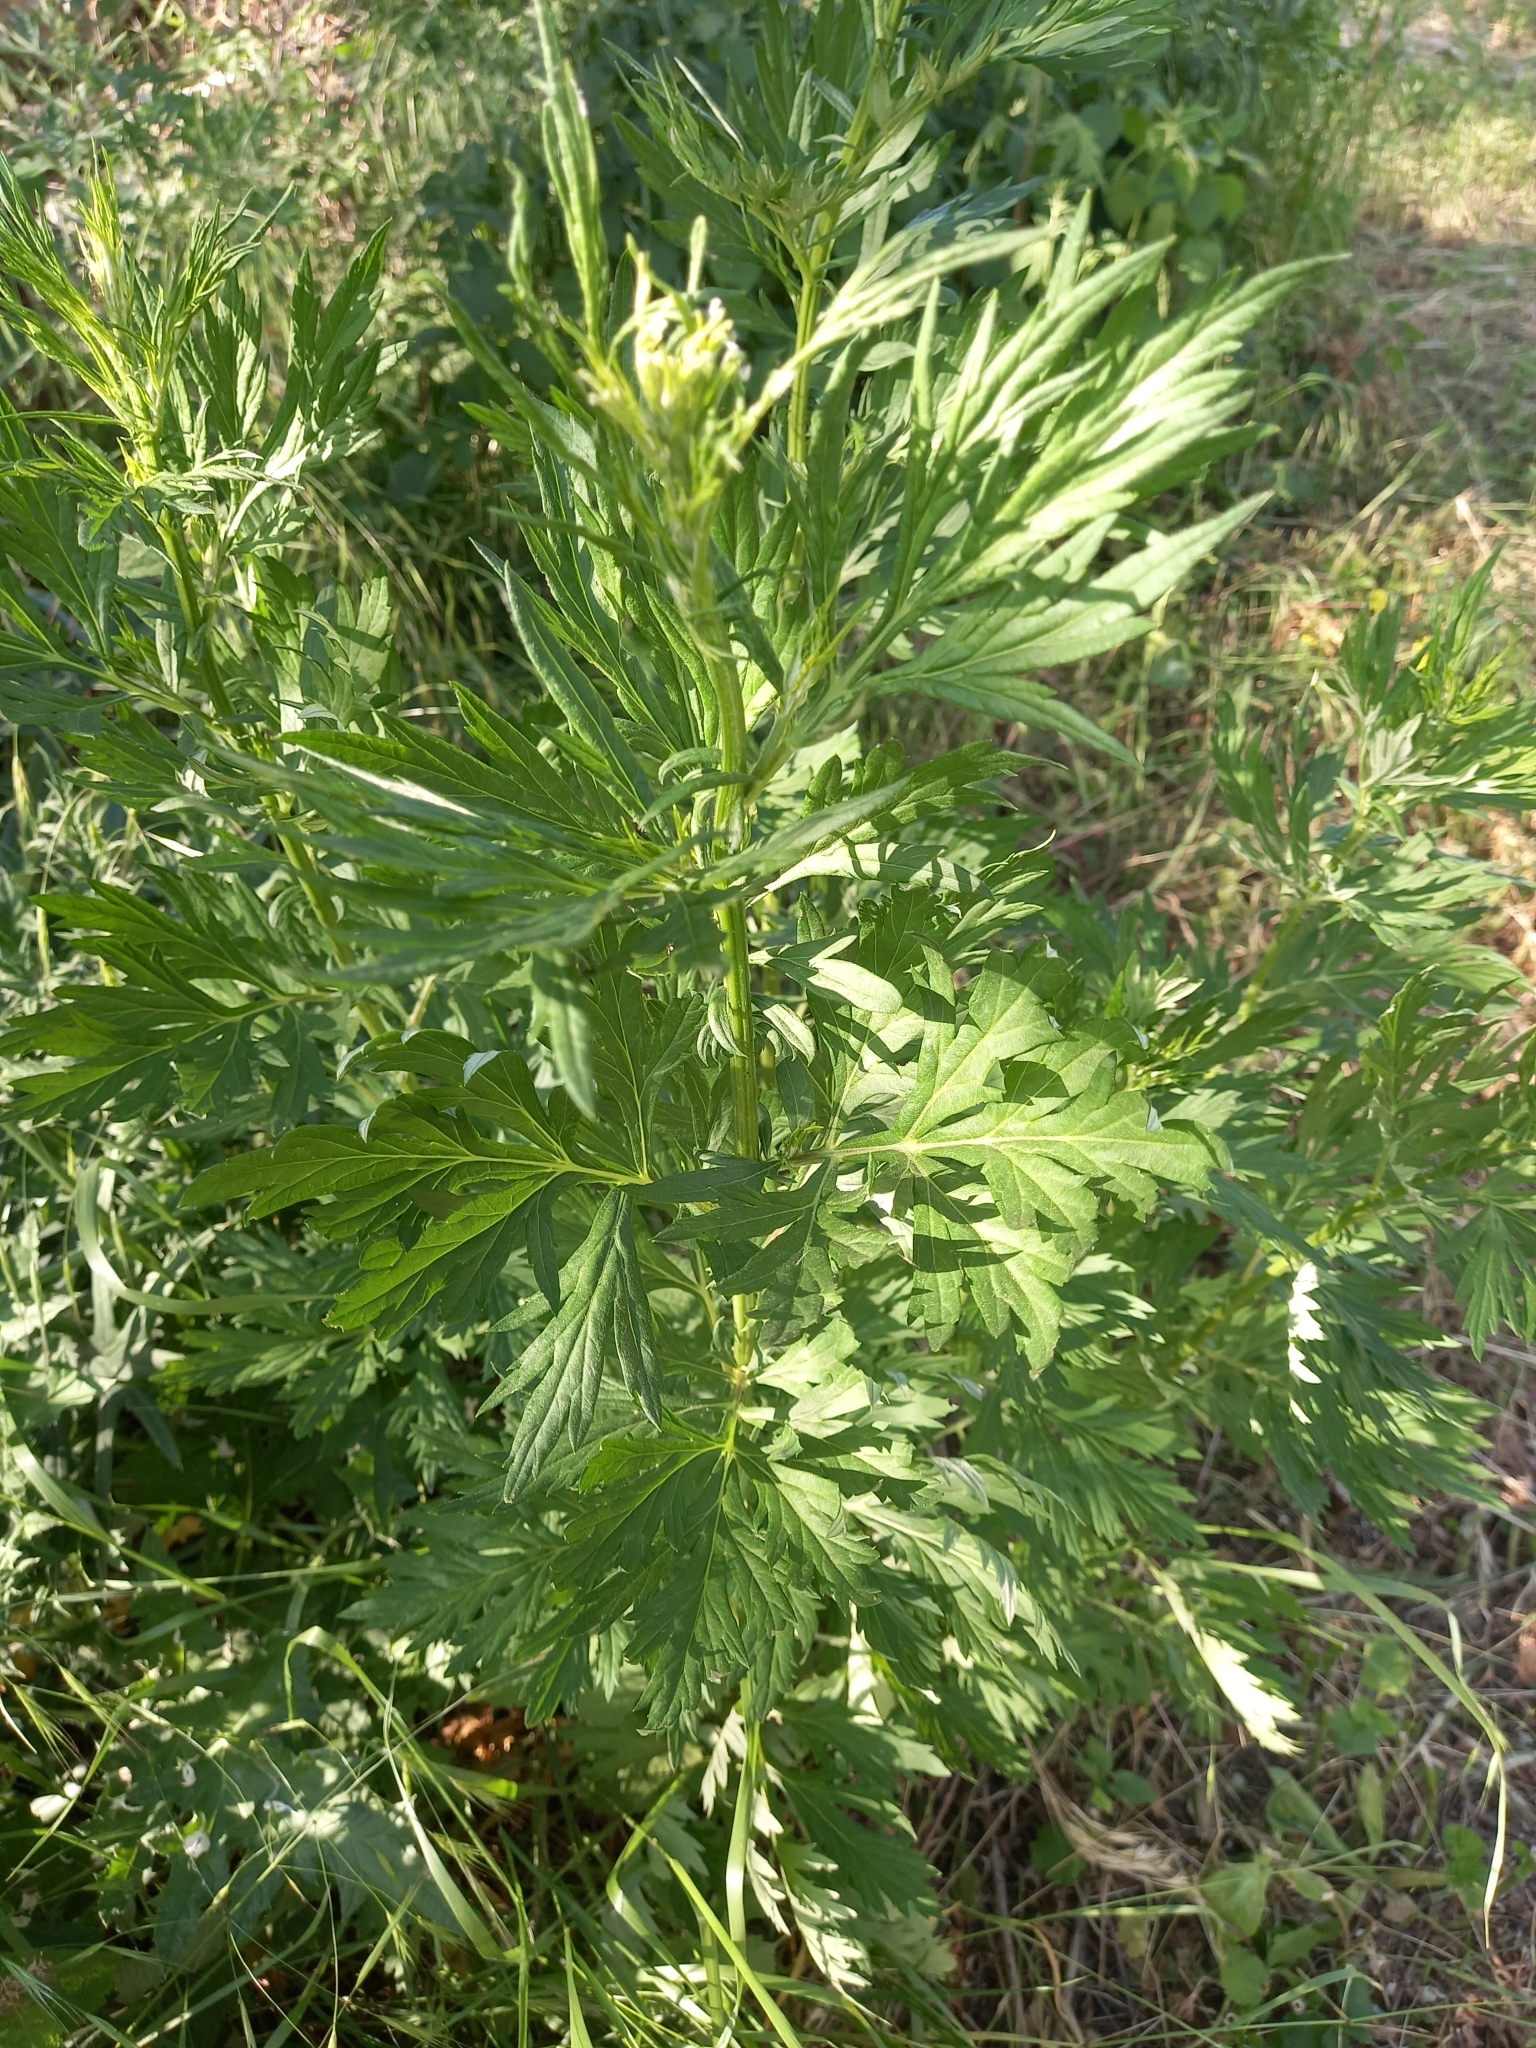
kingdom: Plantae
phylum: Tracheophyta
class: Magnoliopsida
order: Asterales
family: Asteraceae
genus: Artemisia
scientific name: Artemisia vulgaris
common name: Mugwort
